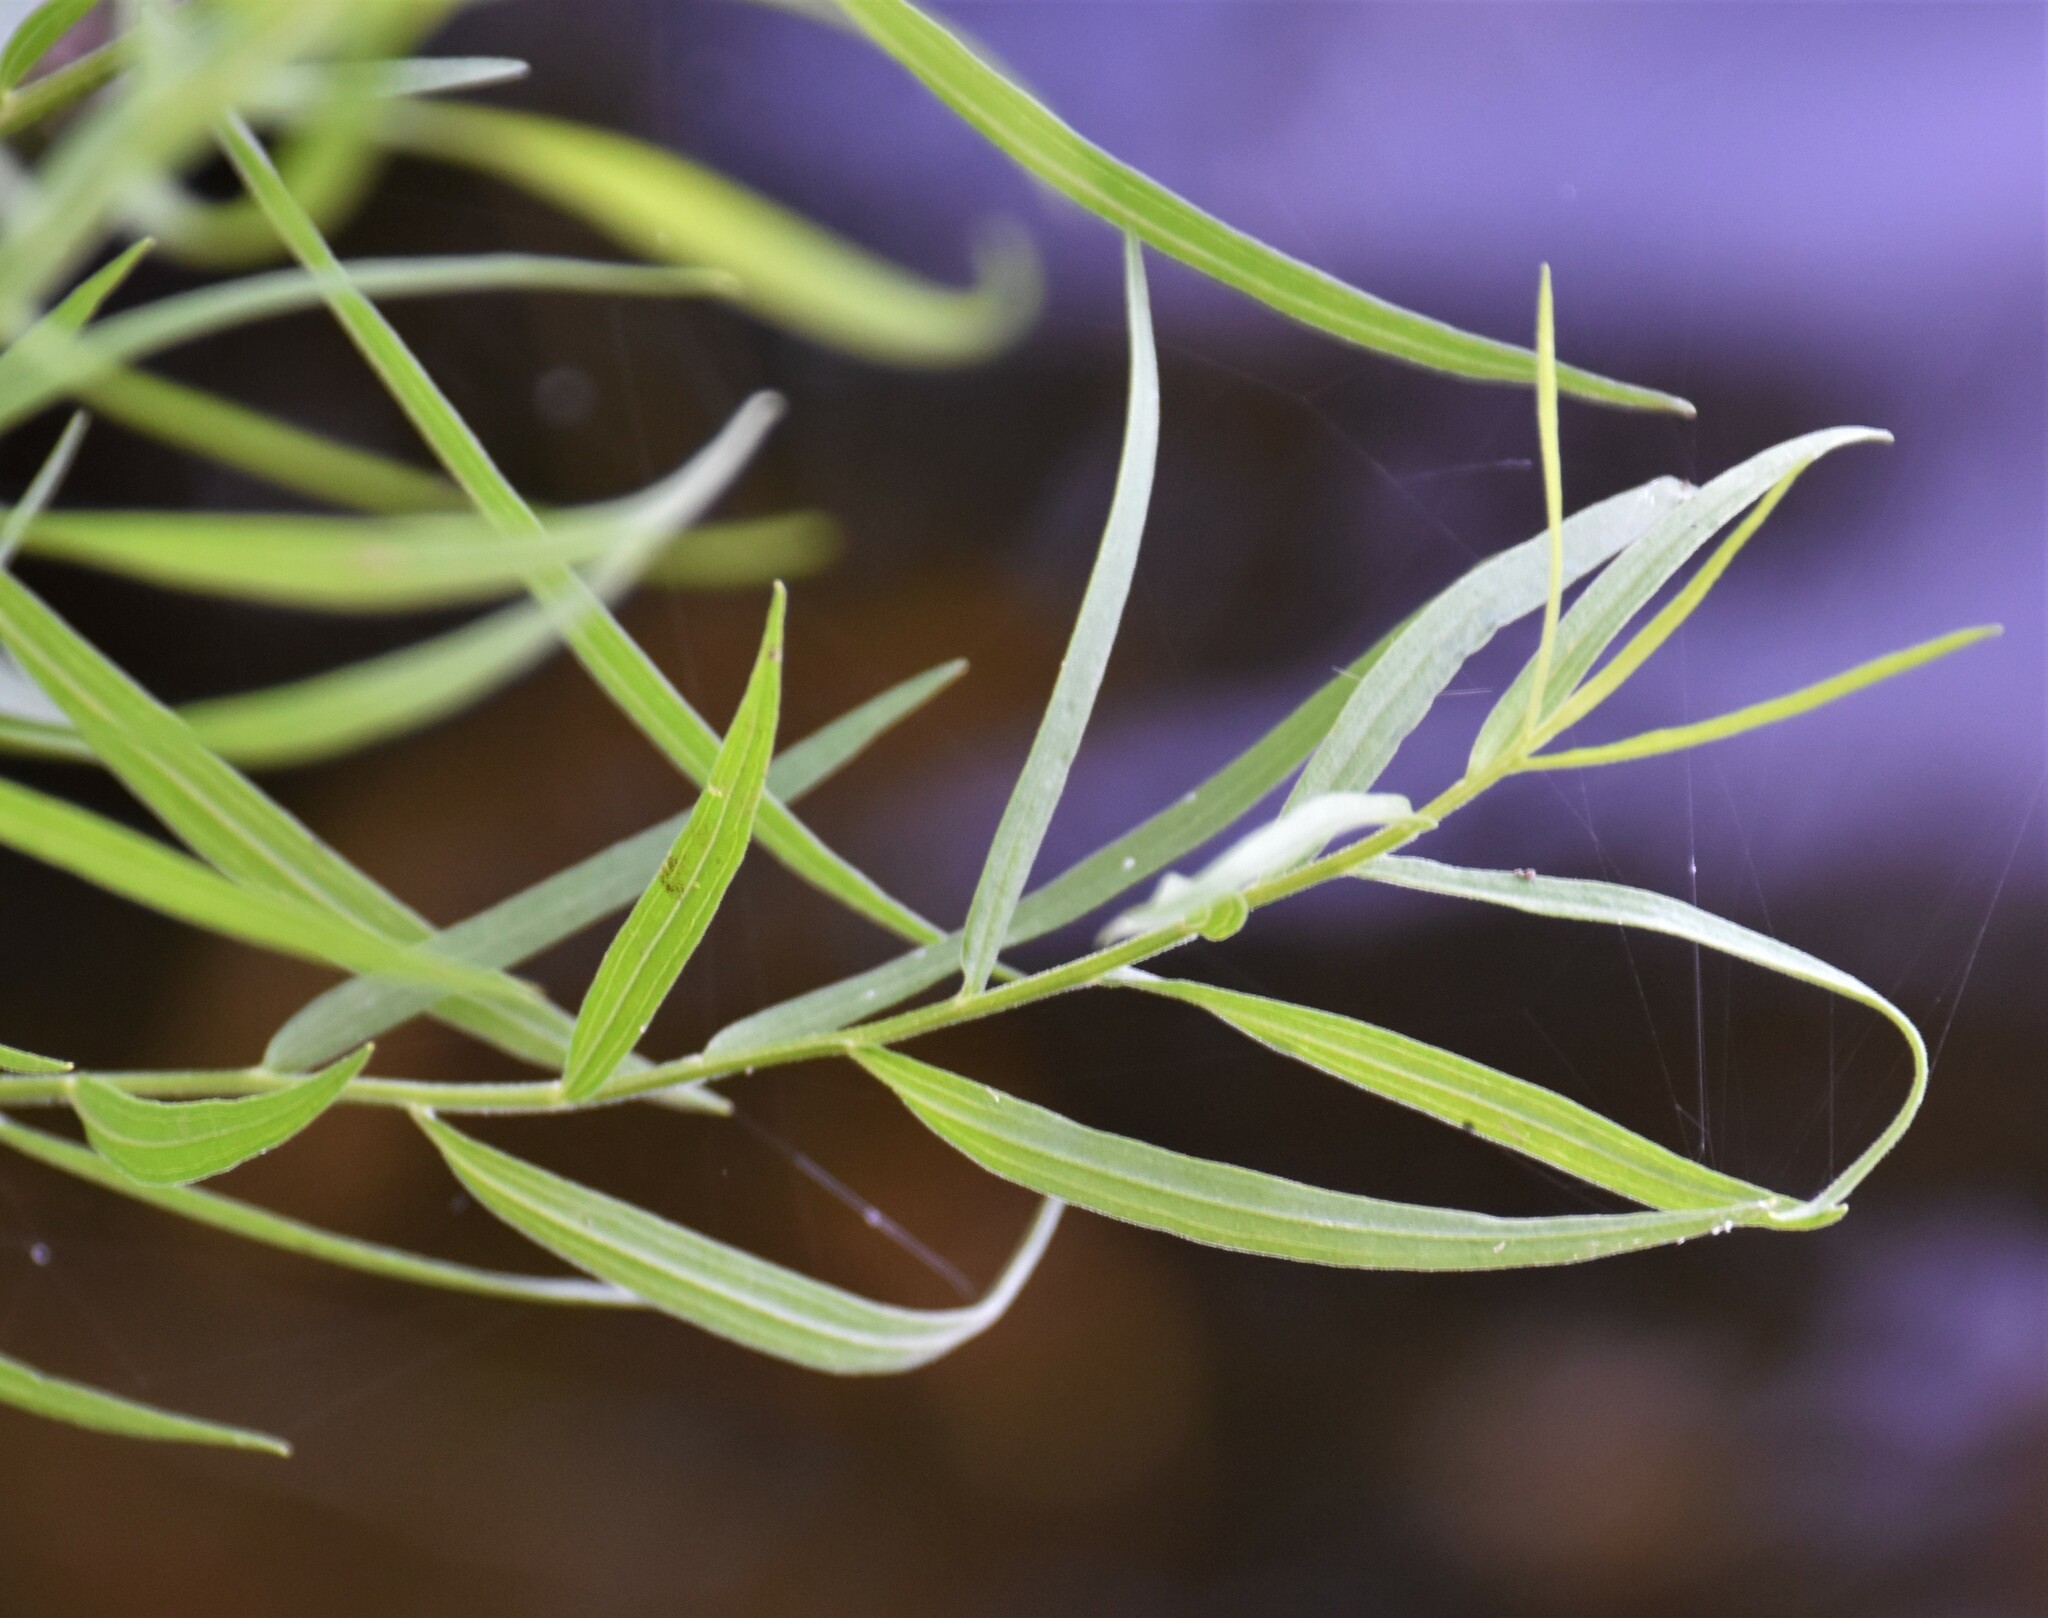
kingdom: Plantae
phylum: Tracheophyta
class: Magnoliopsida
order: Asterales
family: Asteraceae
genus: Euthamia
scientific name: Euthamia graminifolia
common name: Common goldentop
